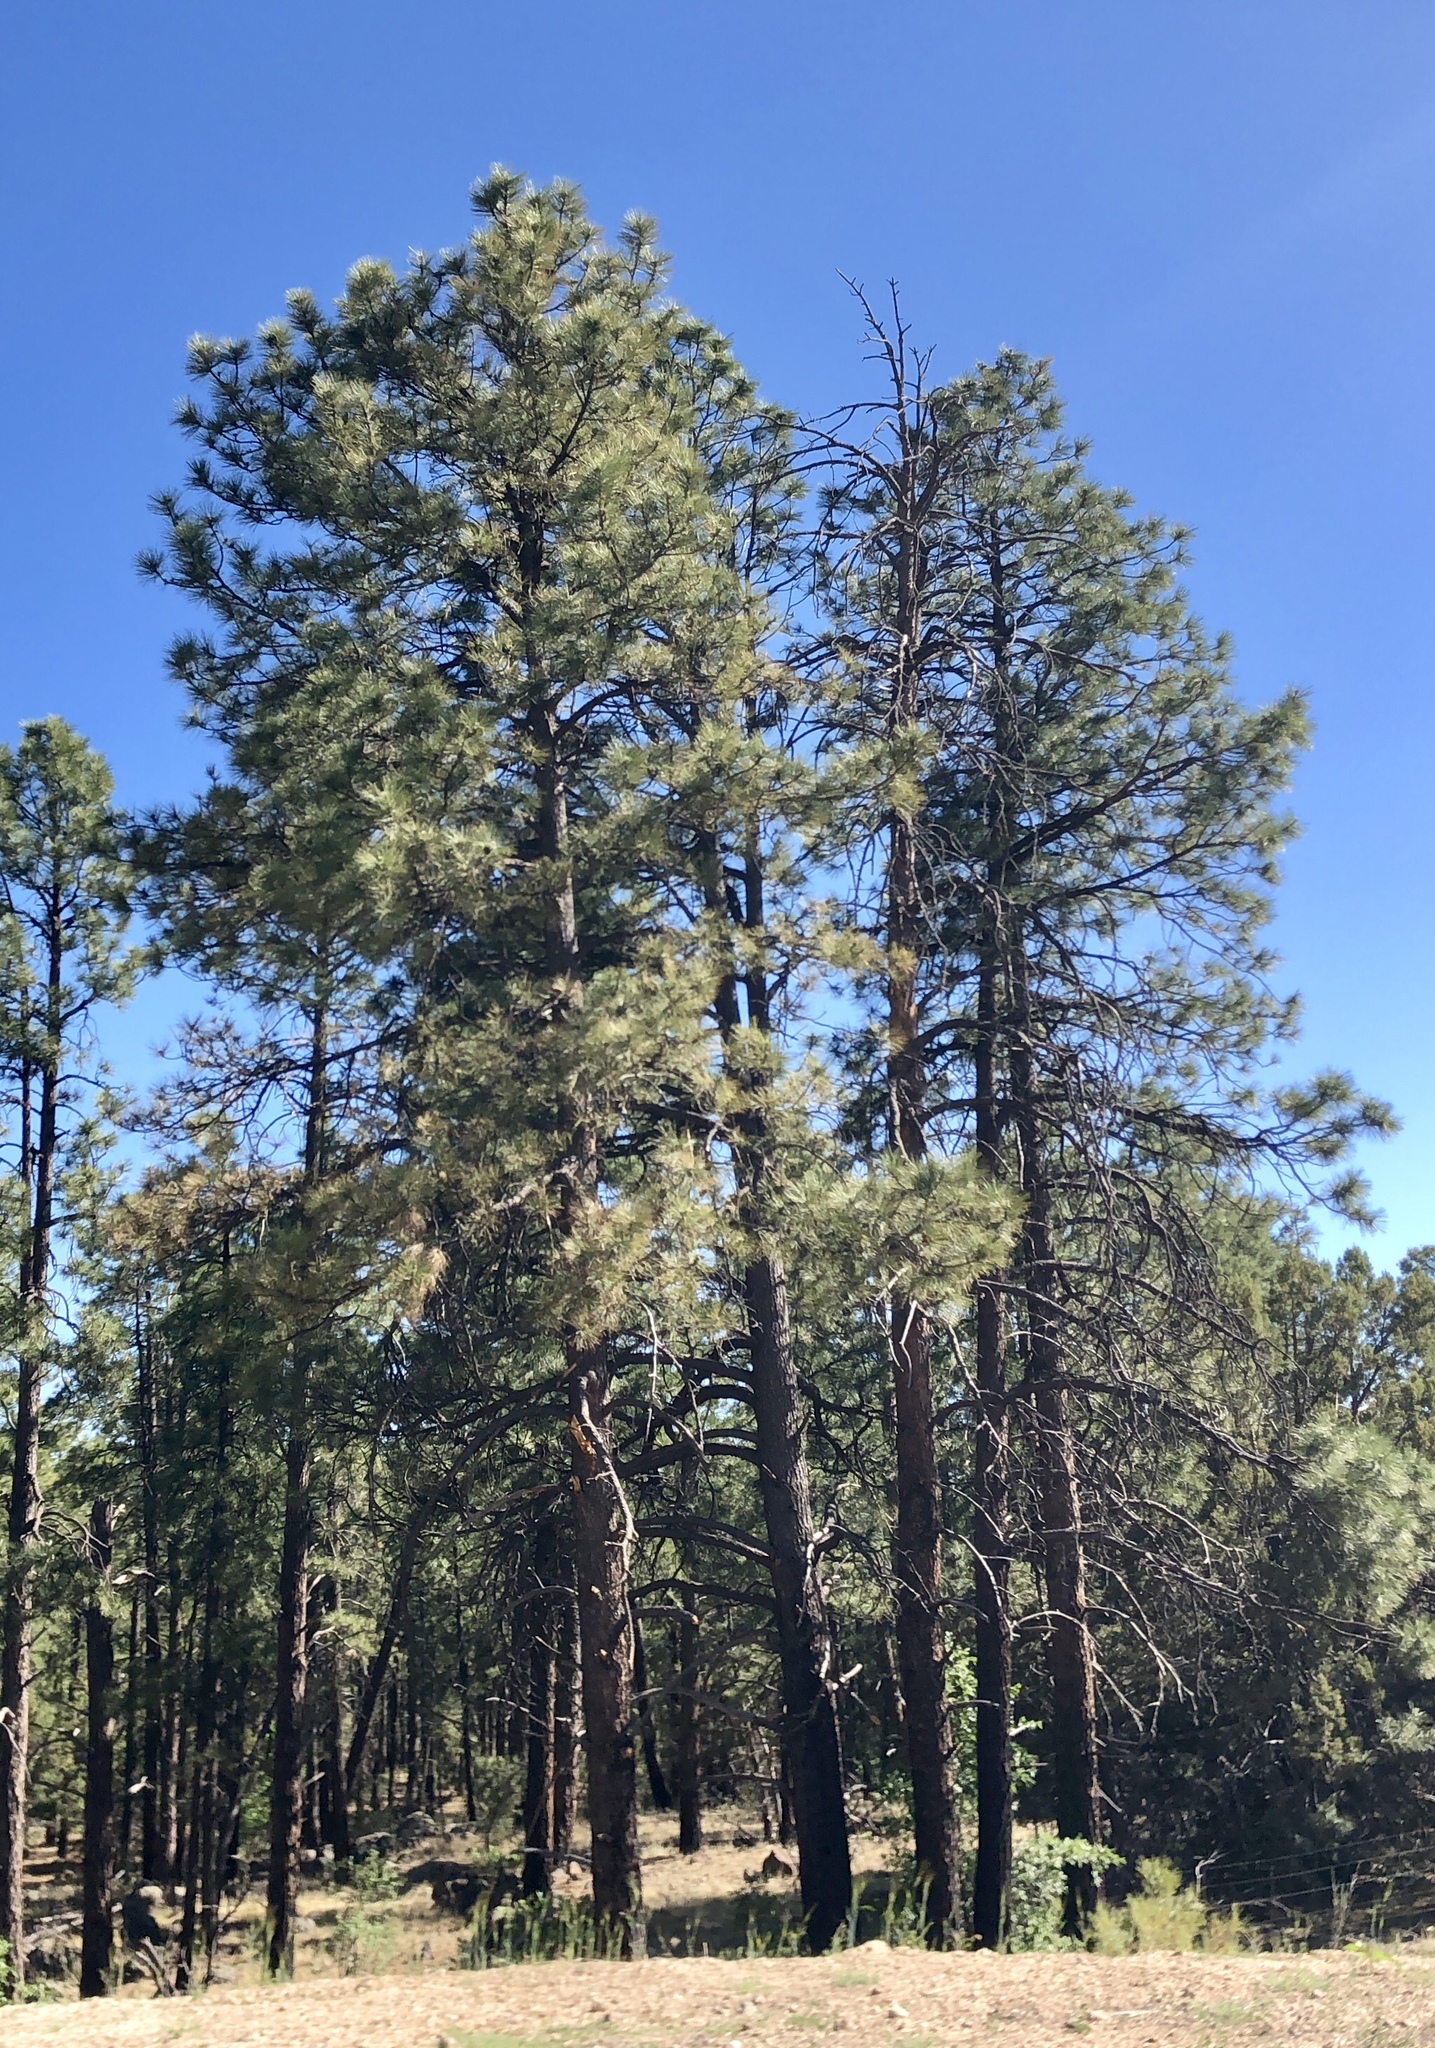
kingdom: Plantae
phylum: Tracheophyta
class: Pinopsida
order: Pinales
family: Pinaceae
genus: Pinus
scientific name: Pinus ponderosa
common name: Western yellow-pine
